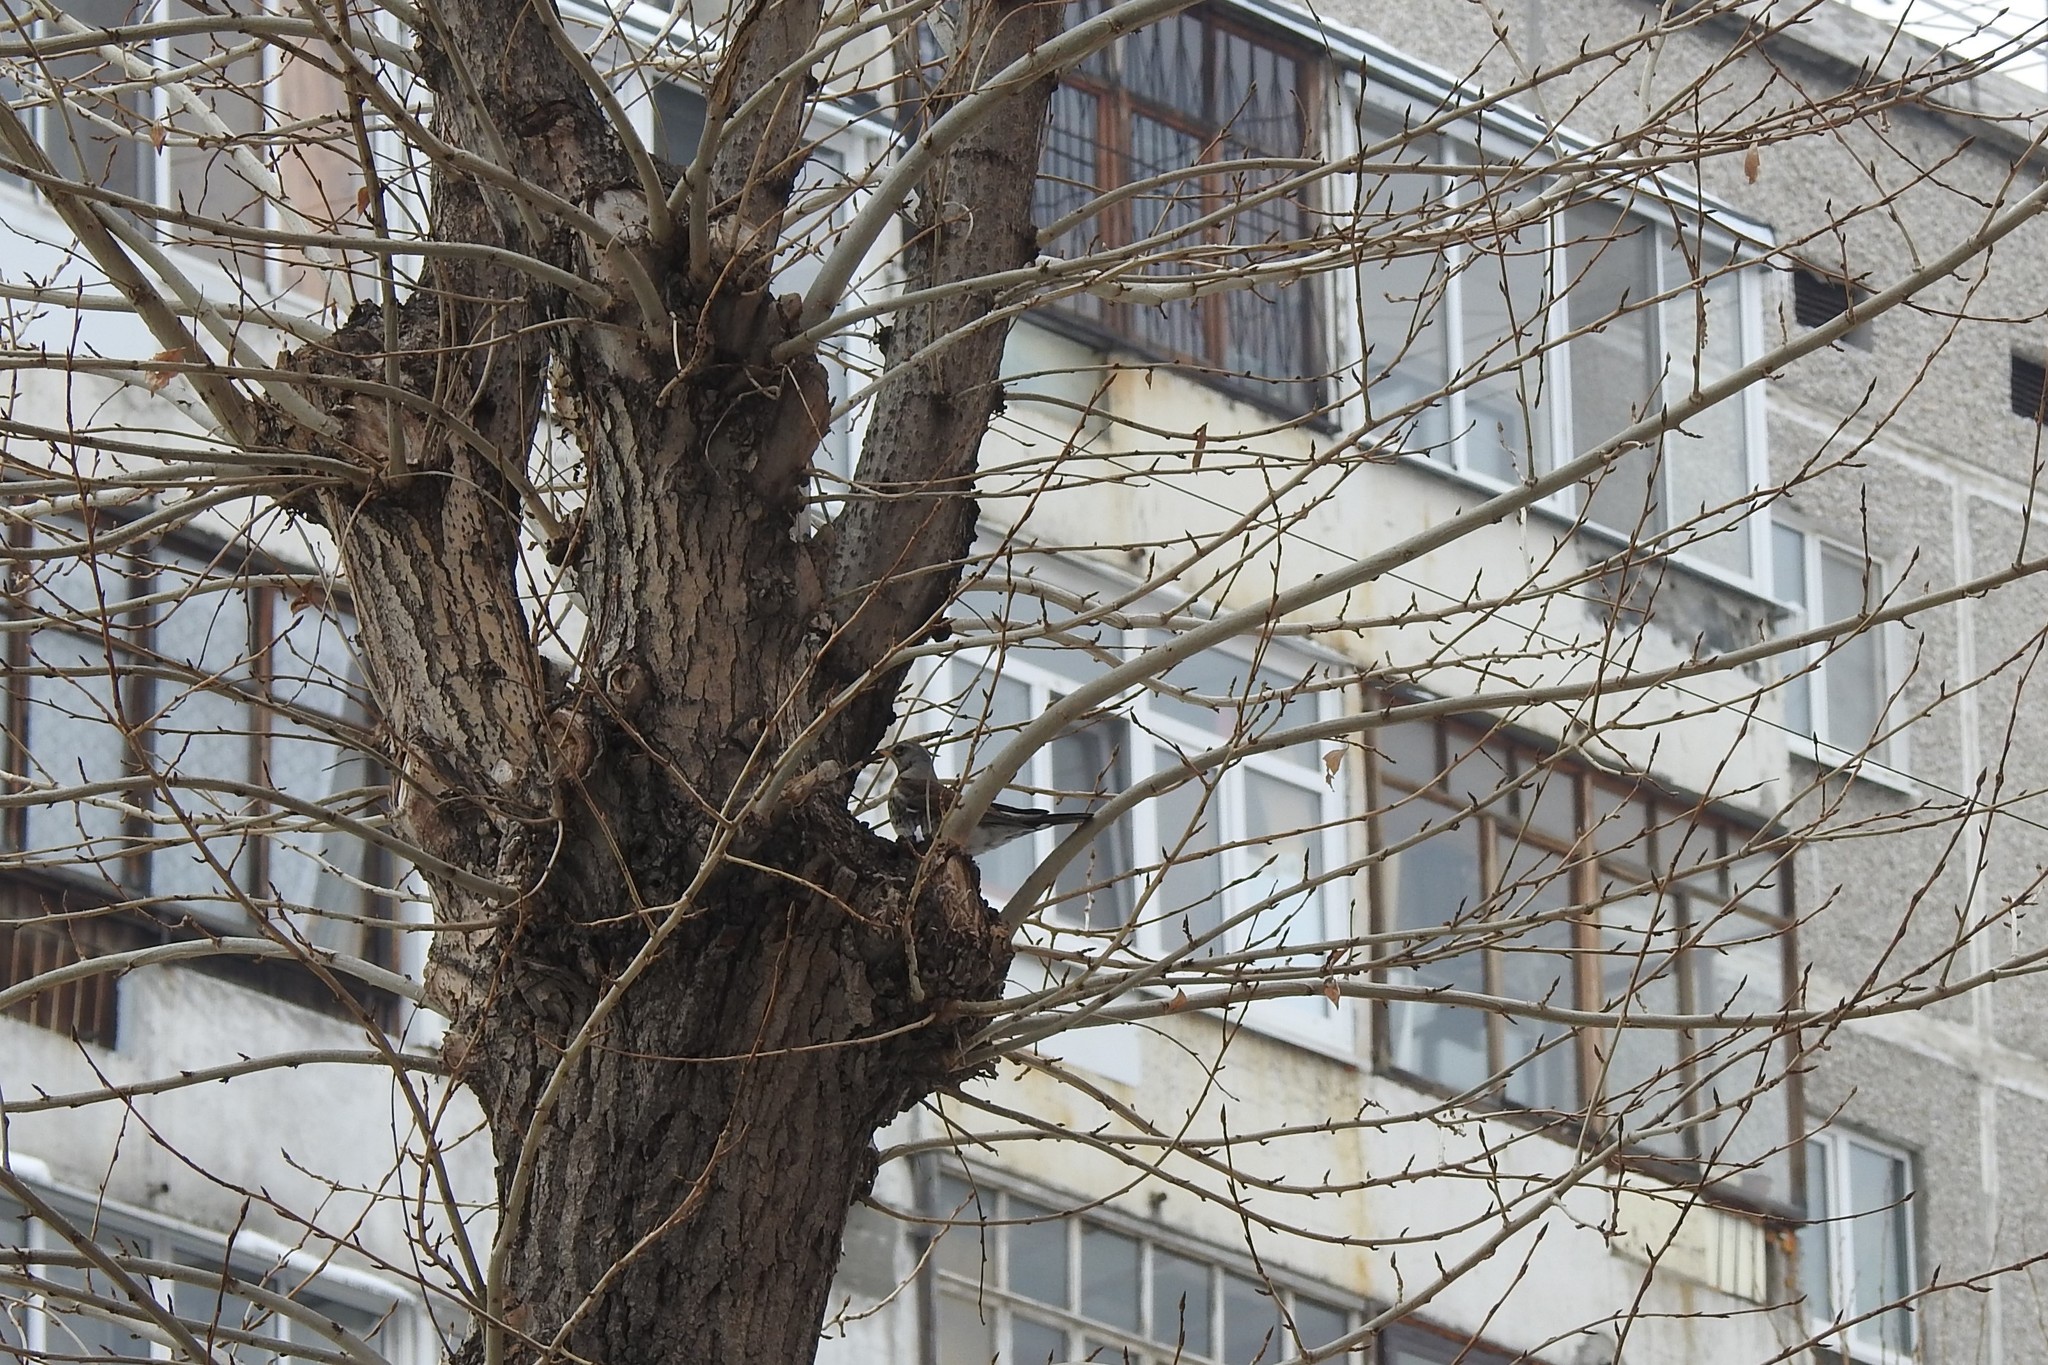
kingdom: Animalia
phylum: Chordata
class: Aves
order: Passeriformes
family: Turdidae
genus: Turdus
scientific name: Turdus pilaris
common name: Fieldfare
